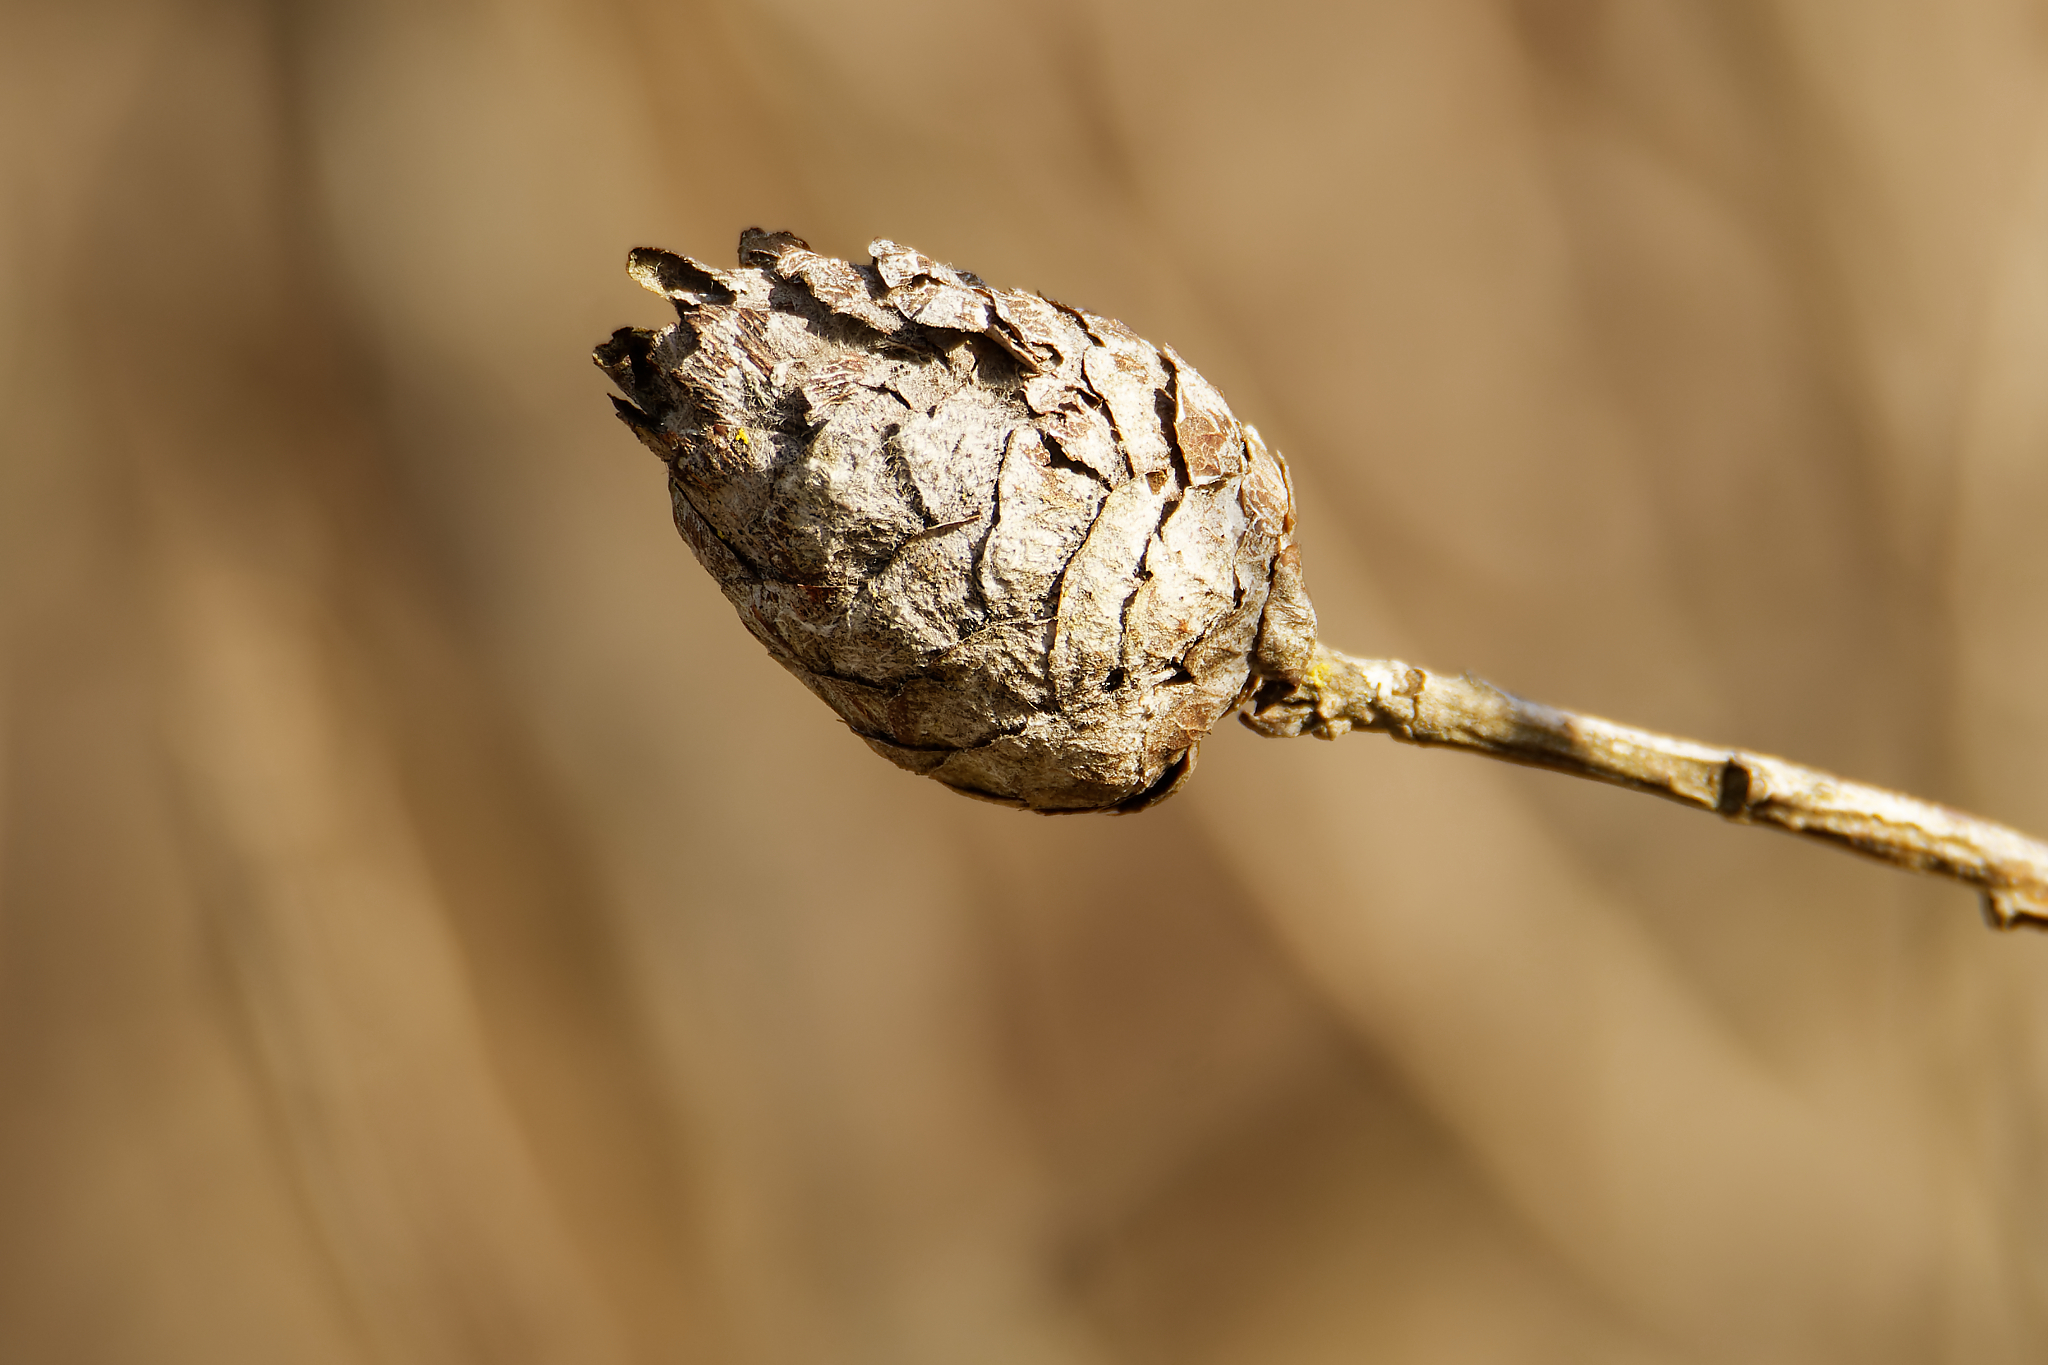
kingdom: Animalia
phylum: Arthropoda
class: Insecta
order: Diptera
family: Cecidomyiidae
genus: Rabdophaga
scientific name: Rabdophaga strobiloides
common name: Willow pinecone gall midge
